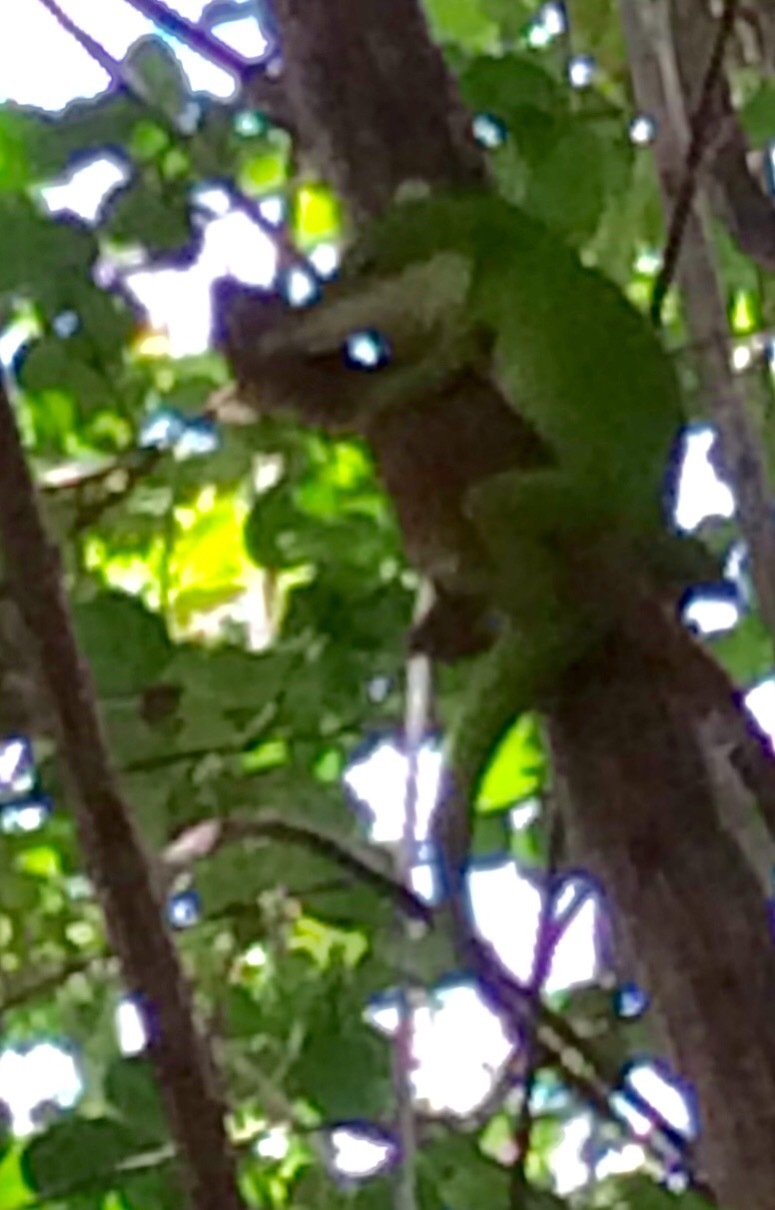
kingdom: Animalia
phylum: Chordata
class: Squamata
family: Dactyloidae
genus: Anolis
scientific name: Anolis carolinensis
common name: Green anole
